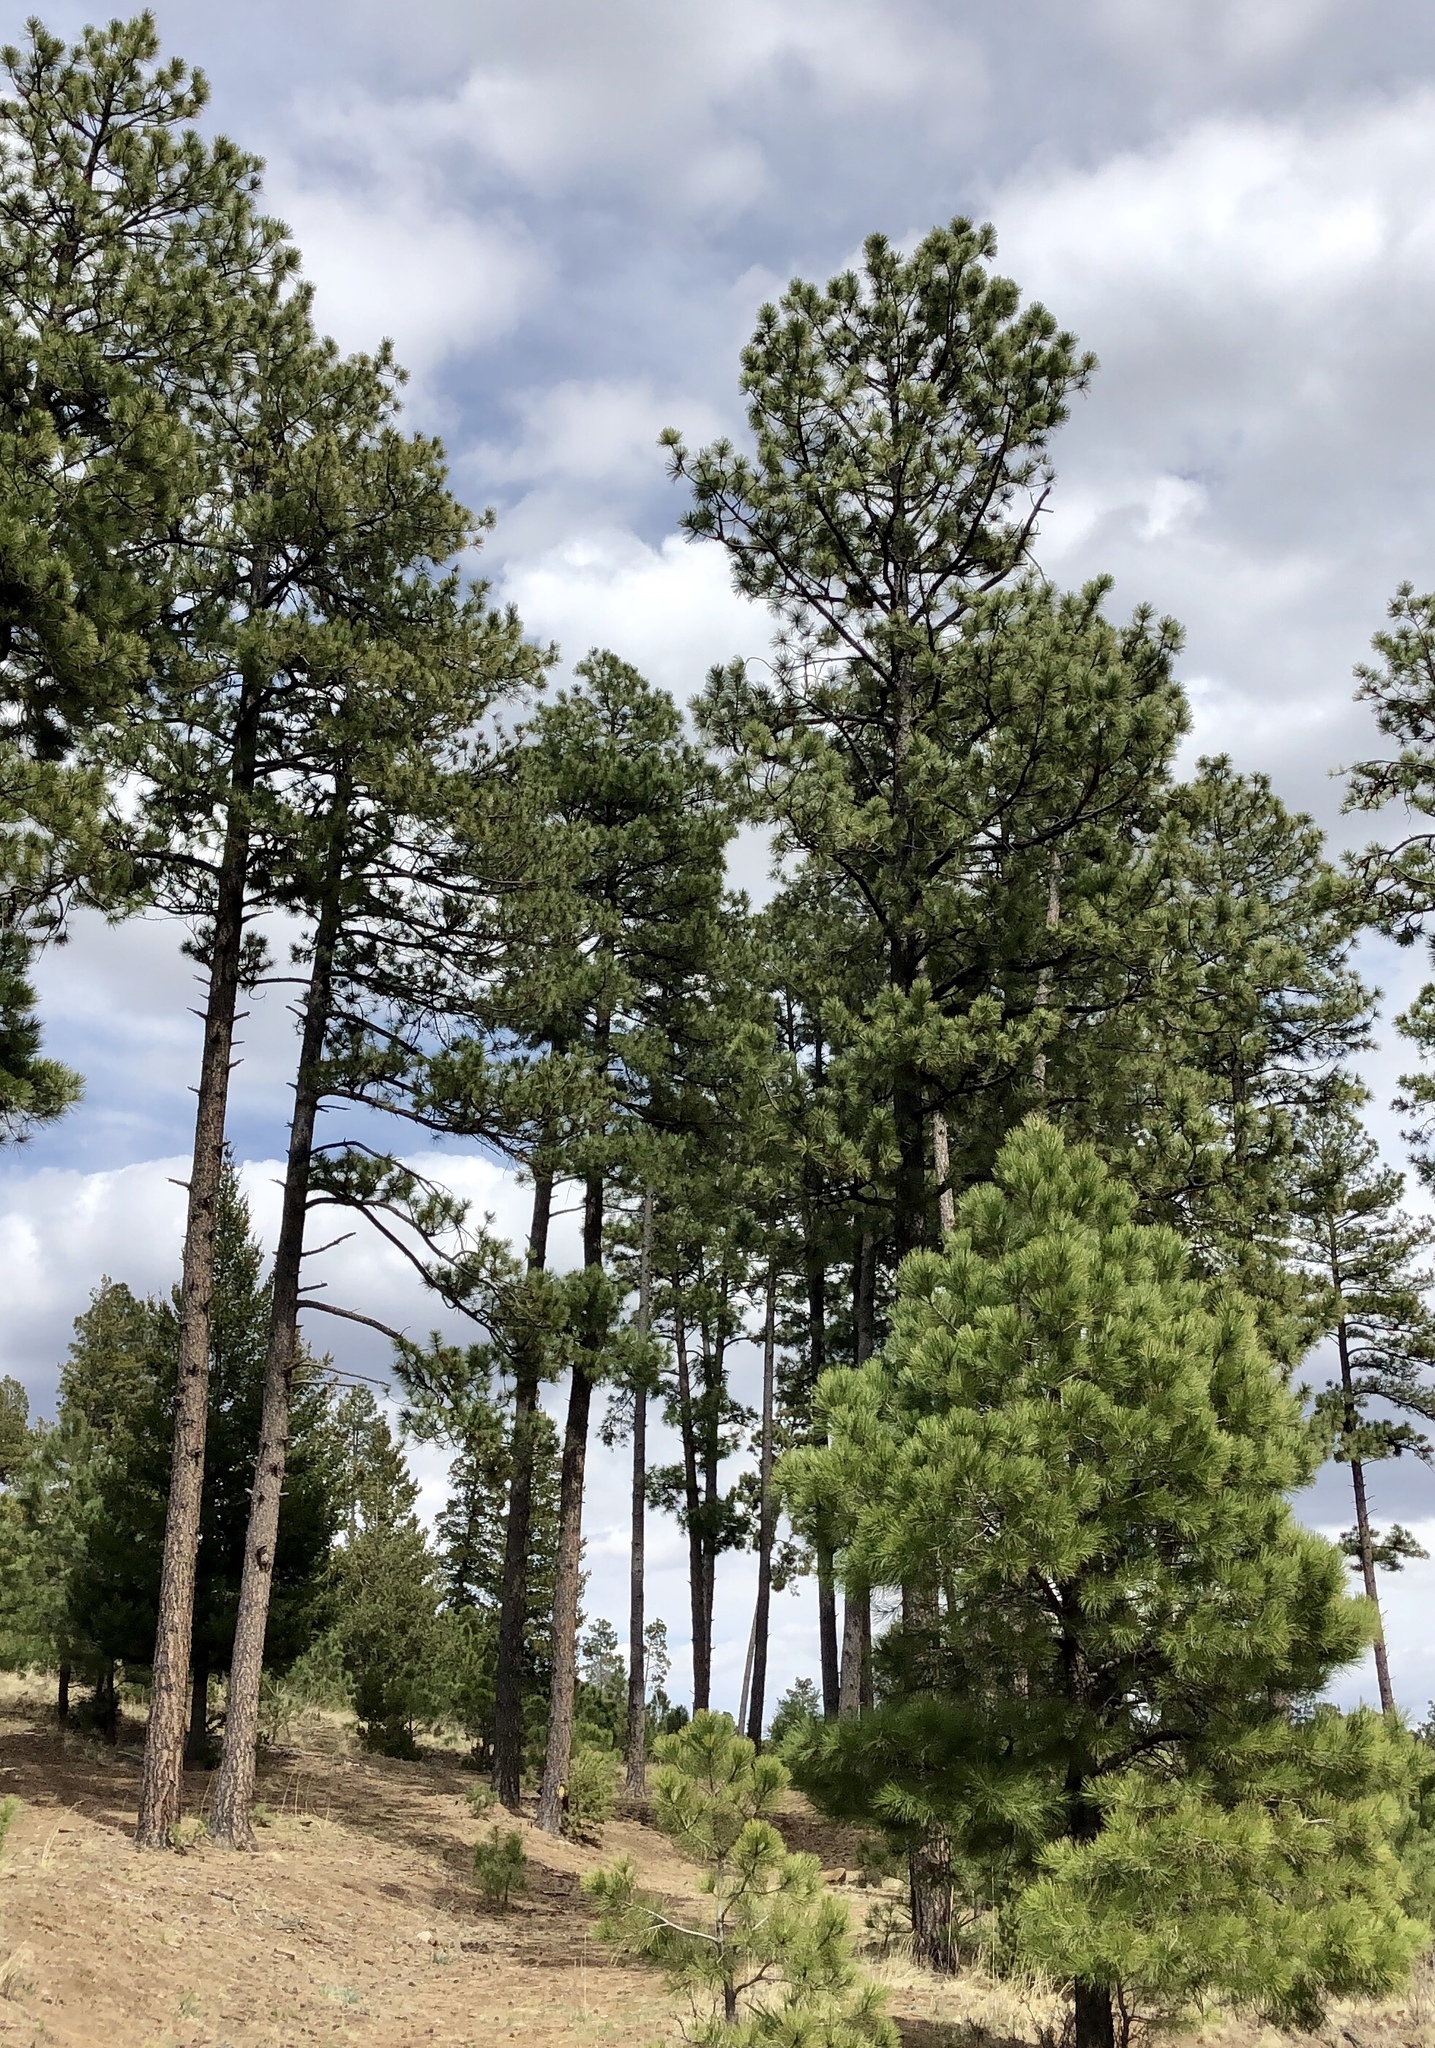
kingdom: Plantae
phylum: Tracheophyta
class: Pinopsida
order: Pinales
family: Pinaceae
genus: Pinus
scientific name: Pinus ponderosa
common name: Western yellow-pine
